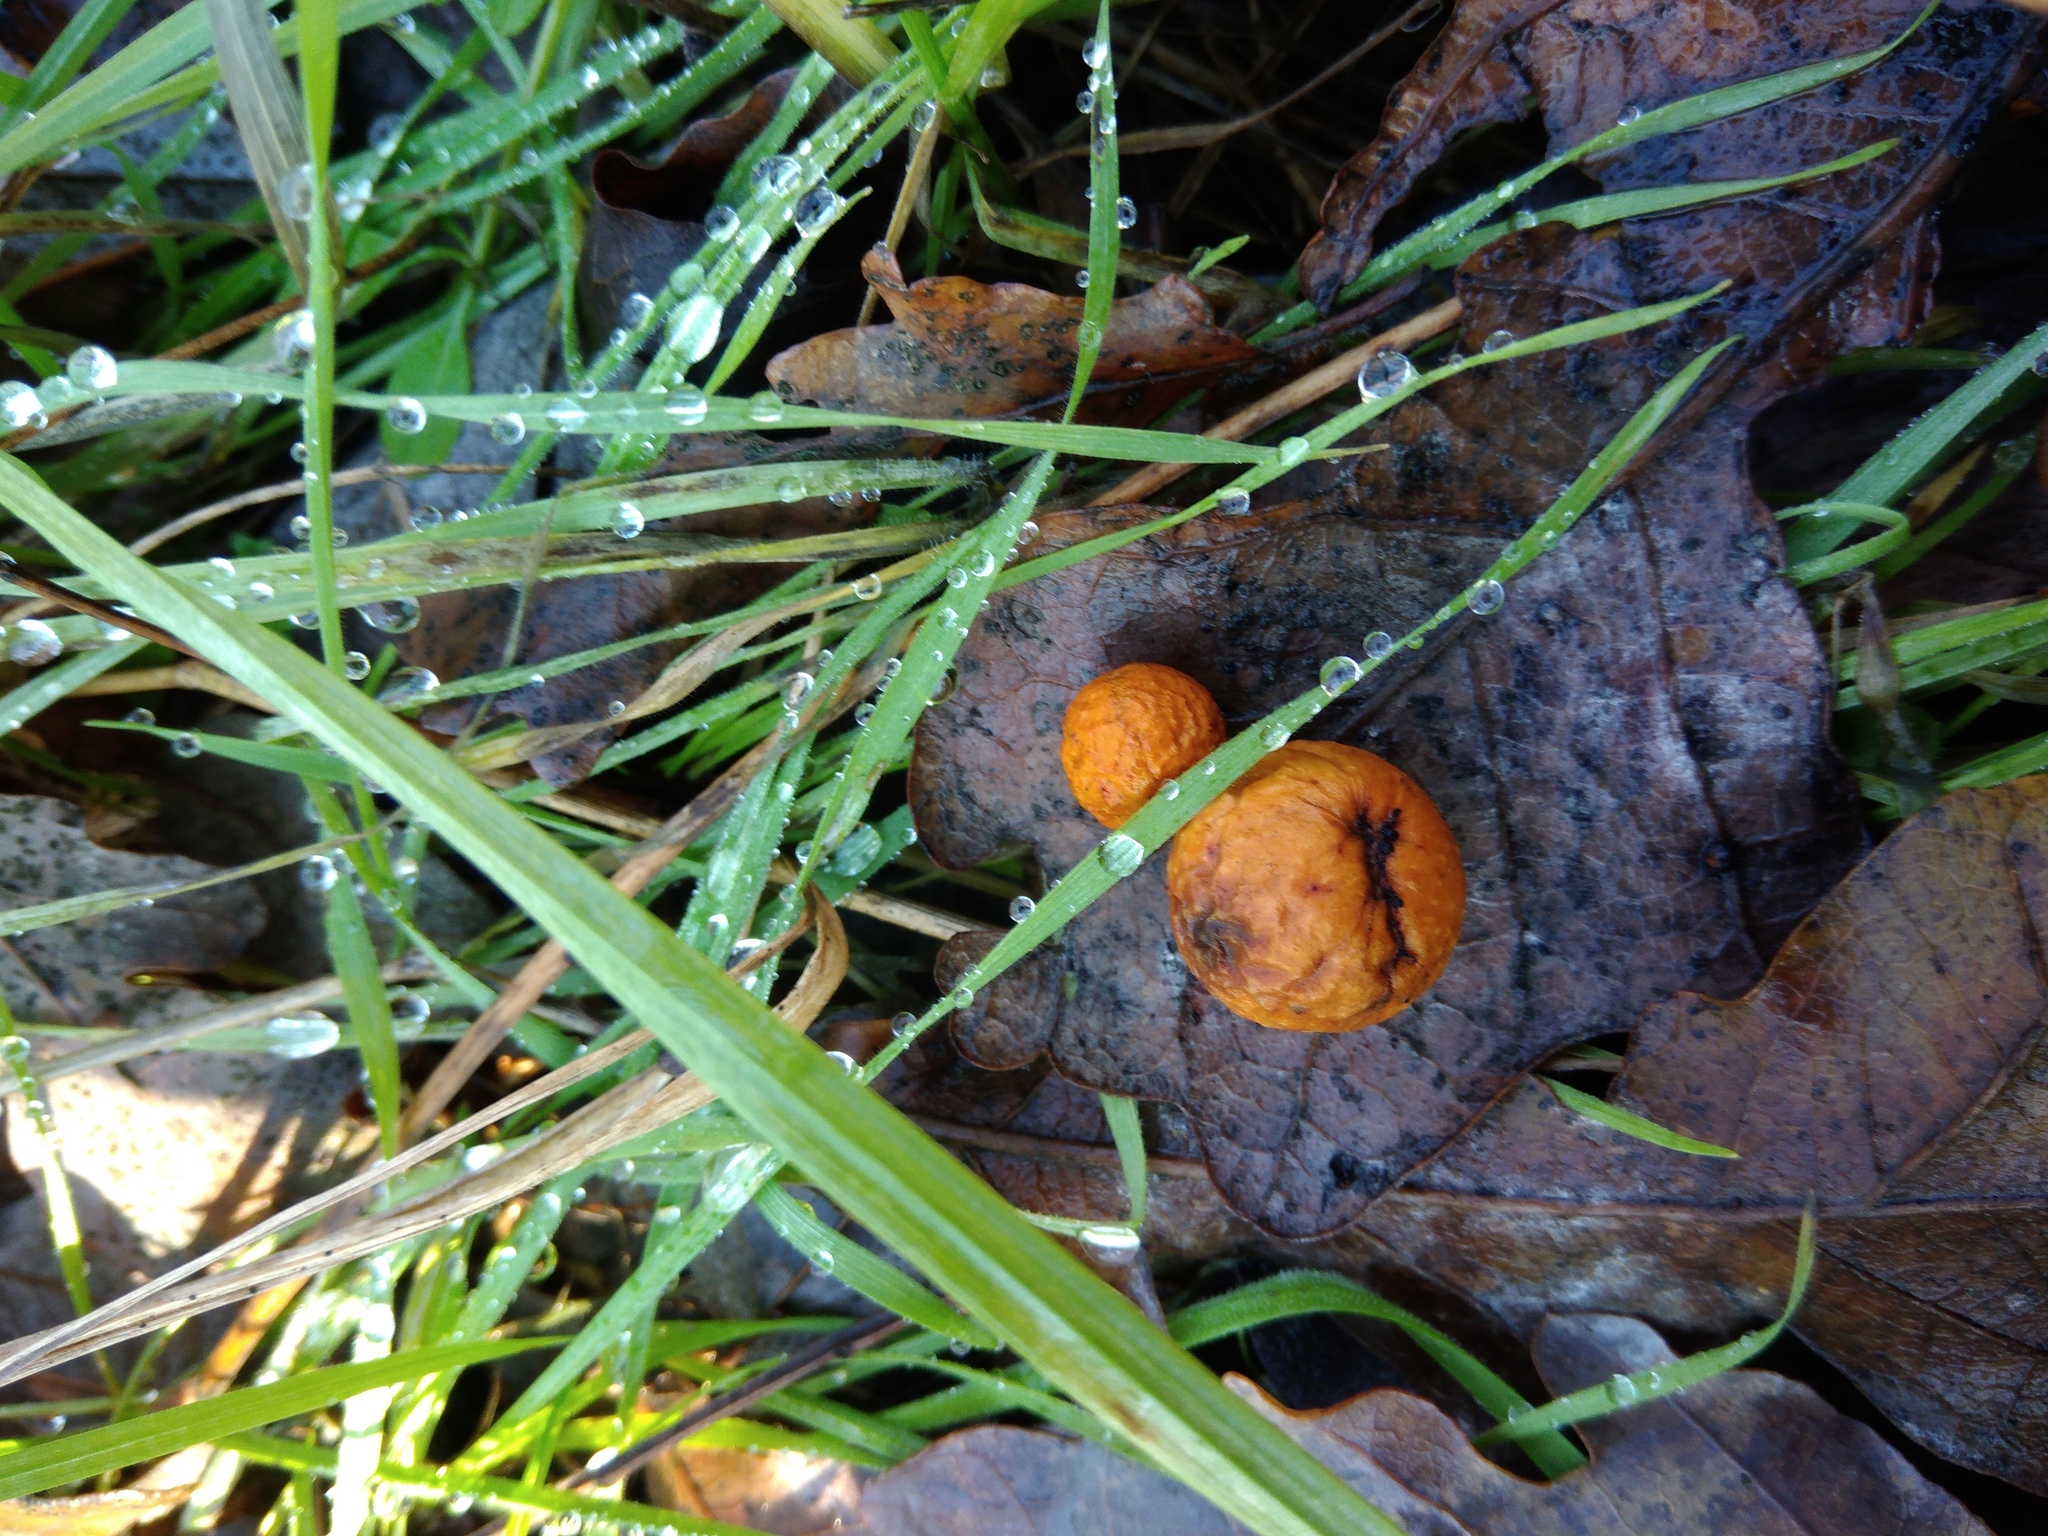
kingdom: Animalia
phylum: Arthropoda
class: Insecta
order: Hymenoptera
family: Cynipidae
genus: Cynips
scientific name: Cynips quercusfolii
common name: Cherry gall
